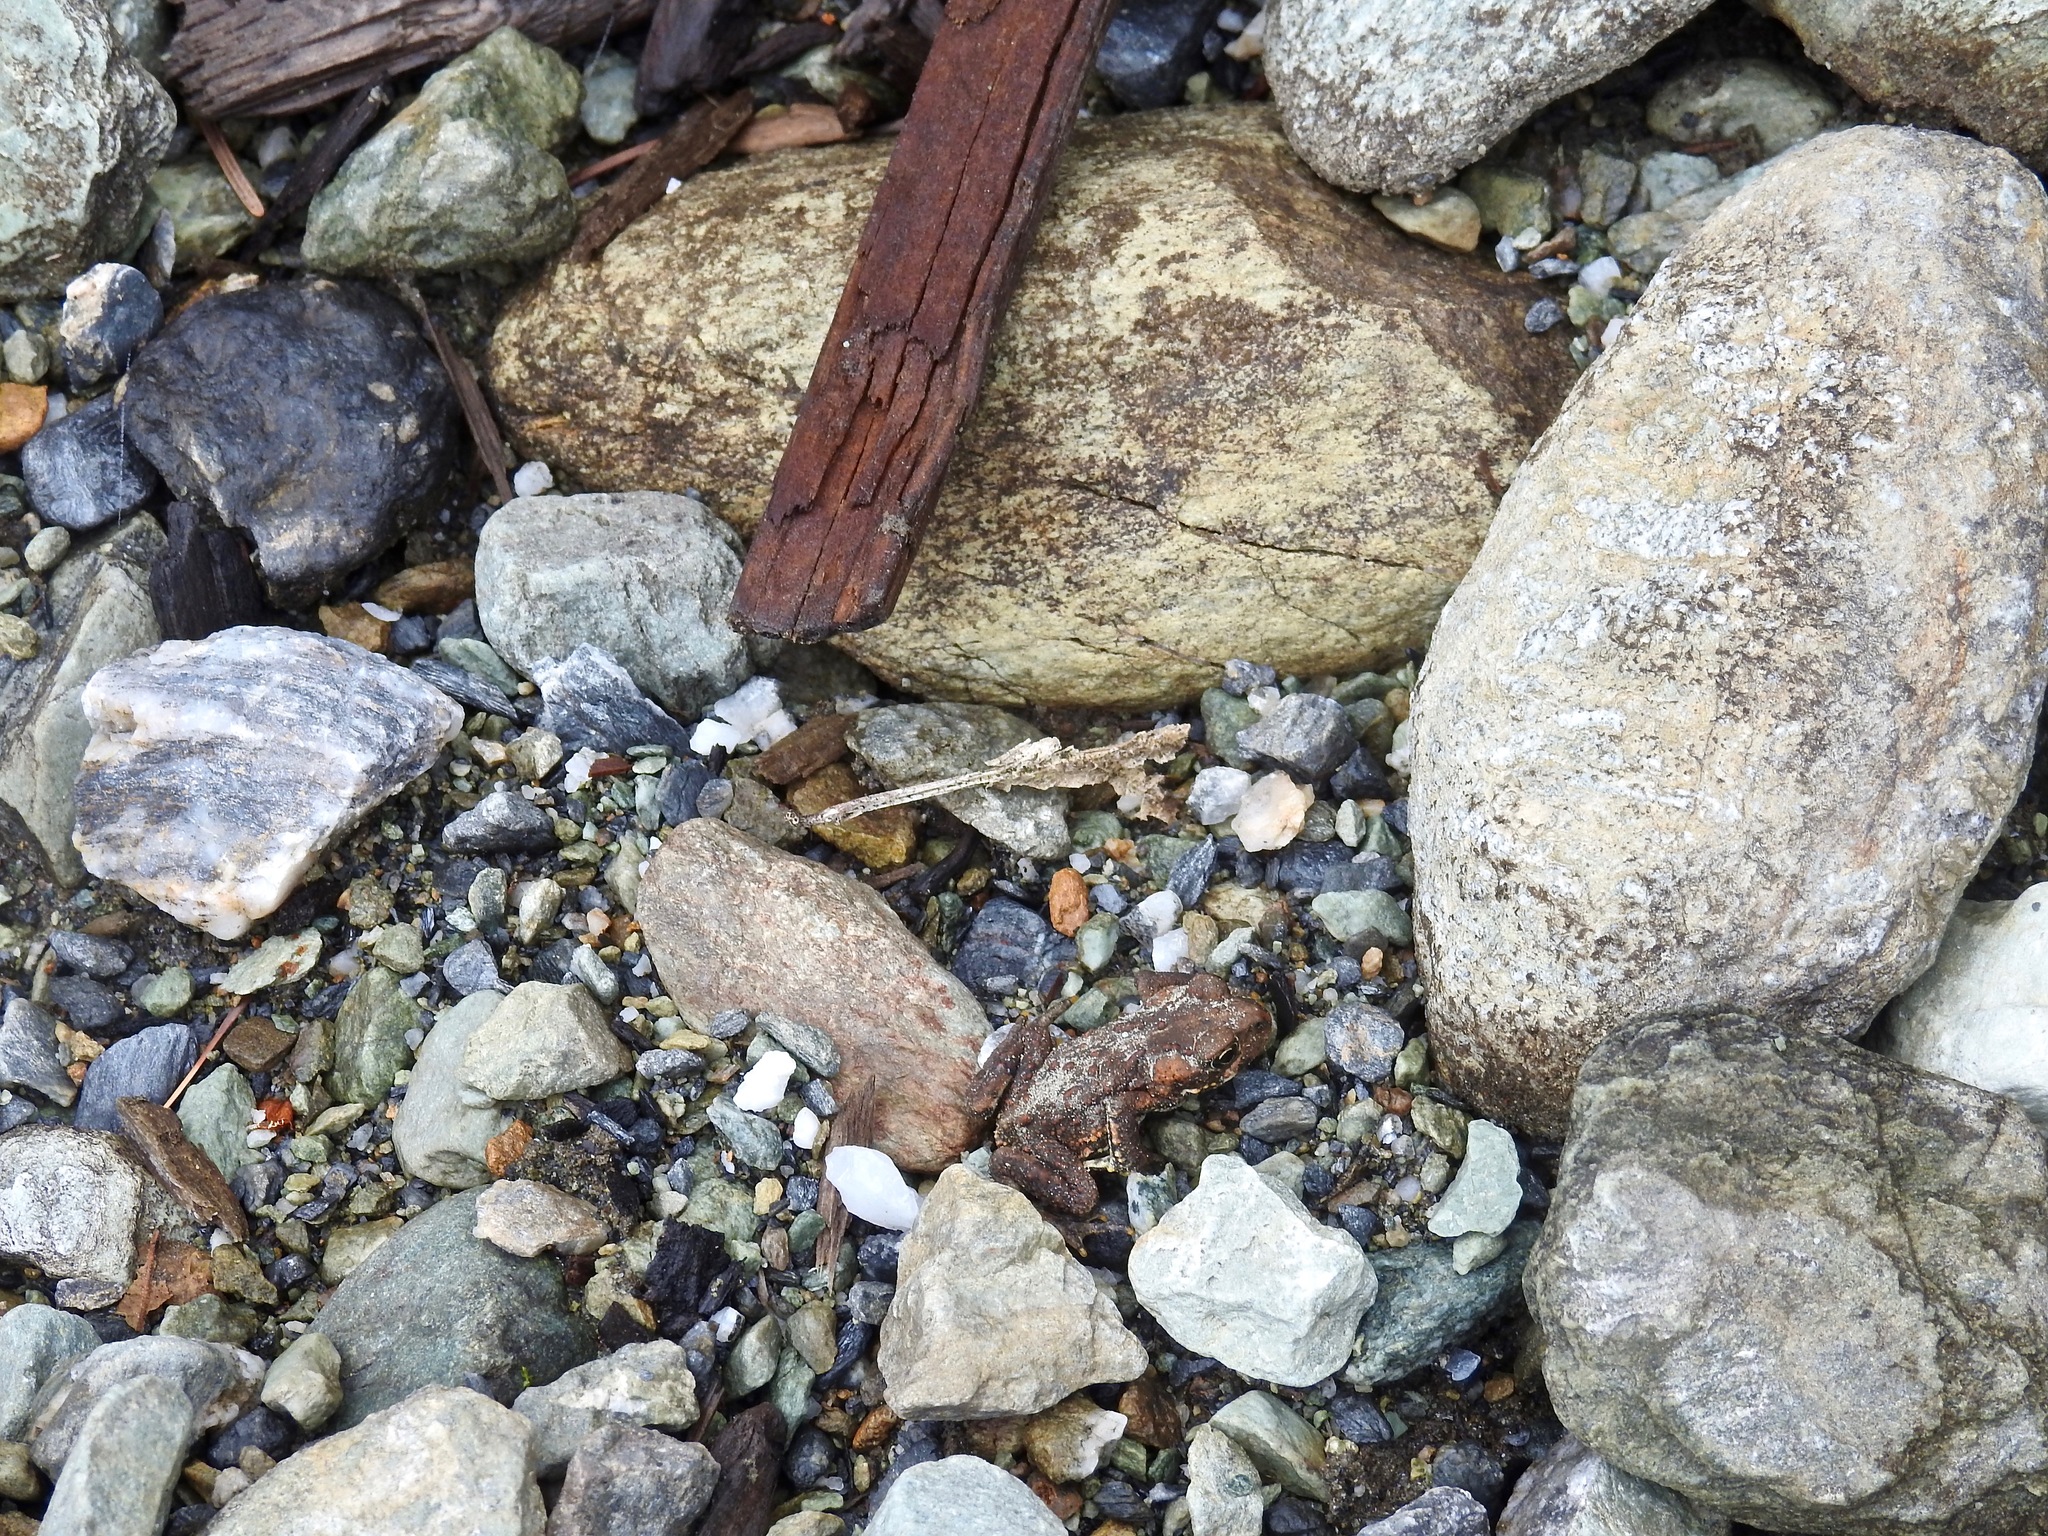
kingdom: Animalia
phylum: Chordata
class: Amphibia
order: Anura
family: Bufonidae
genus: Anaxyrus
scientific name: Anaxyrus boreas
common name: Western toad
